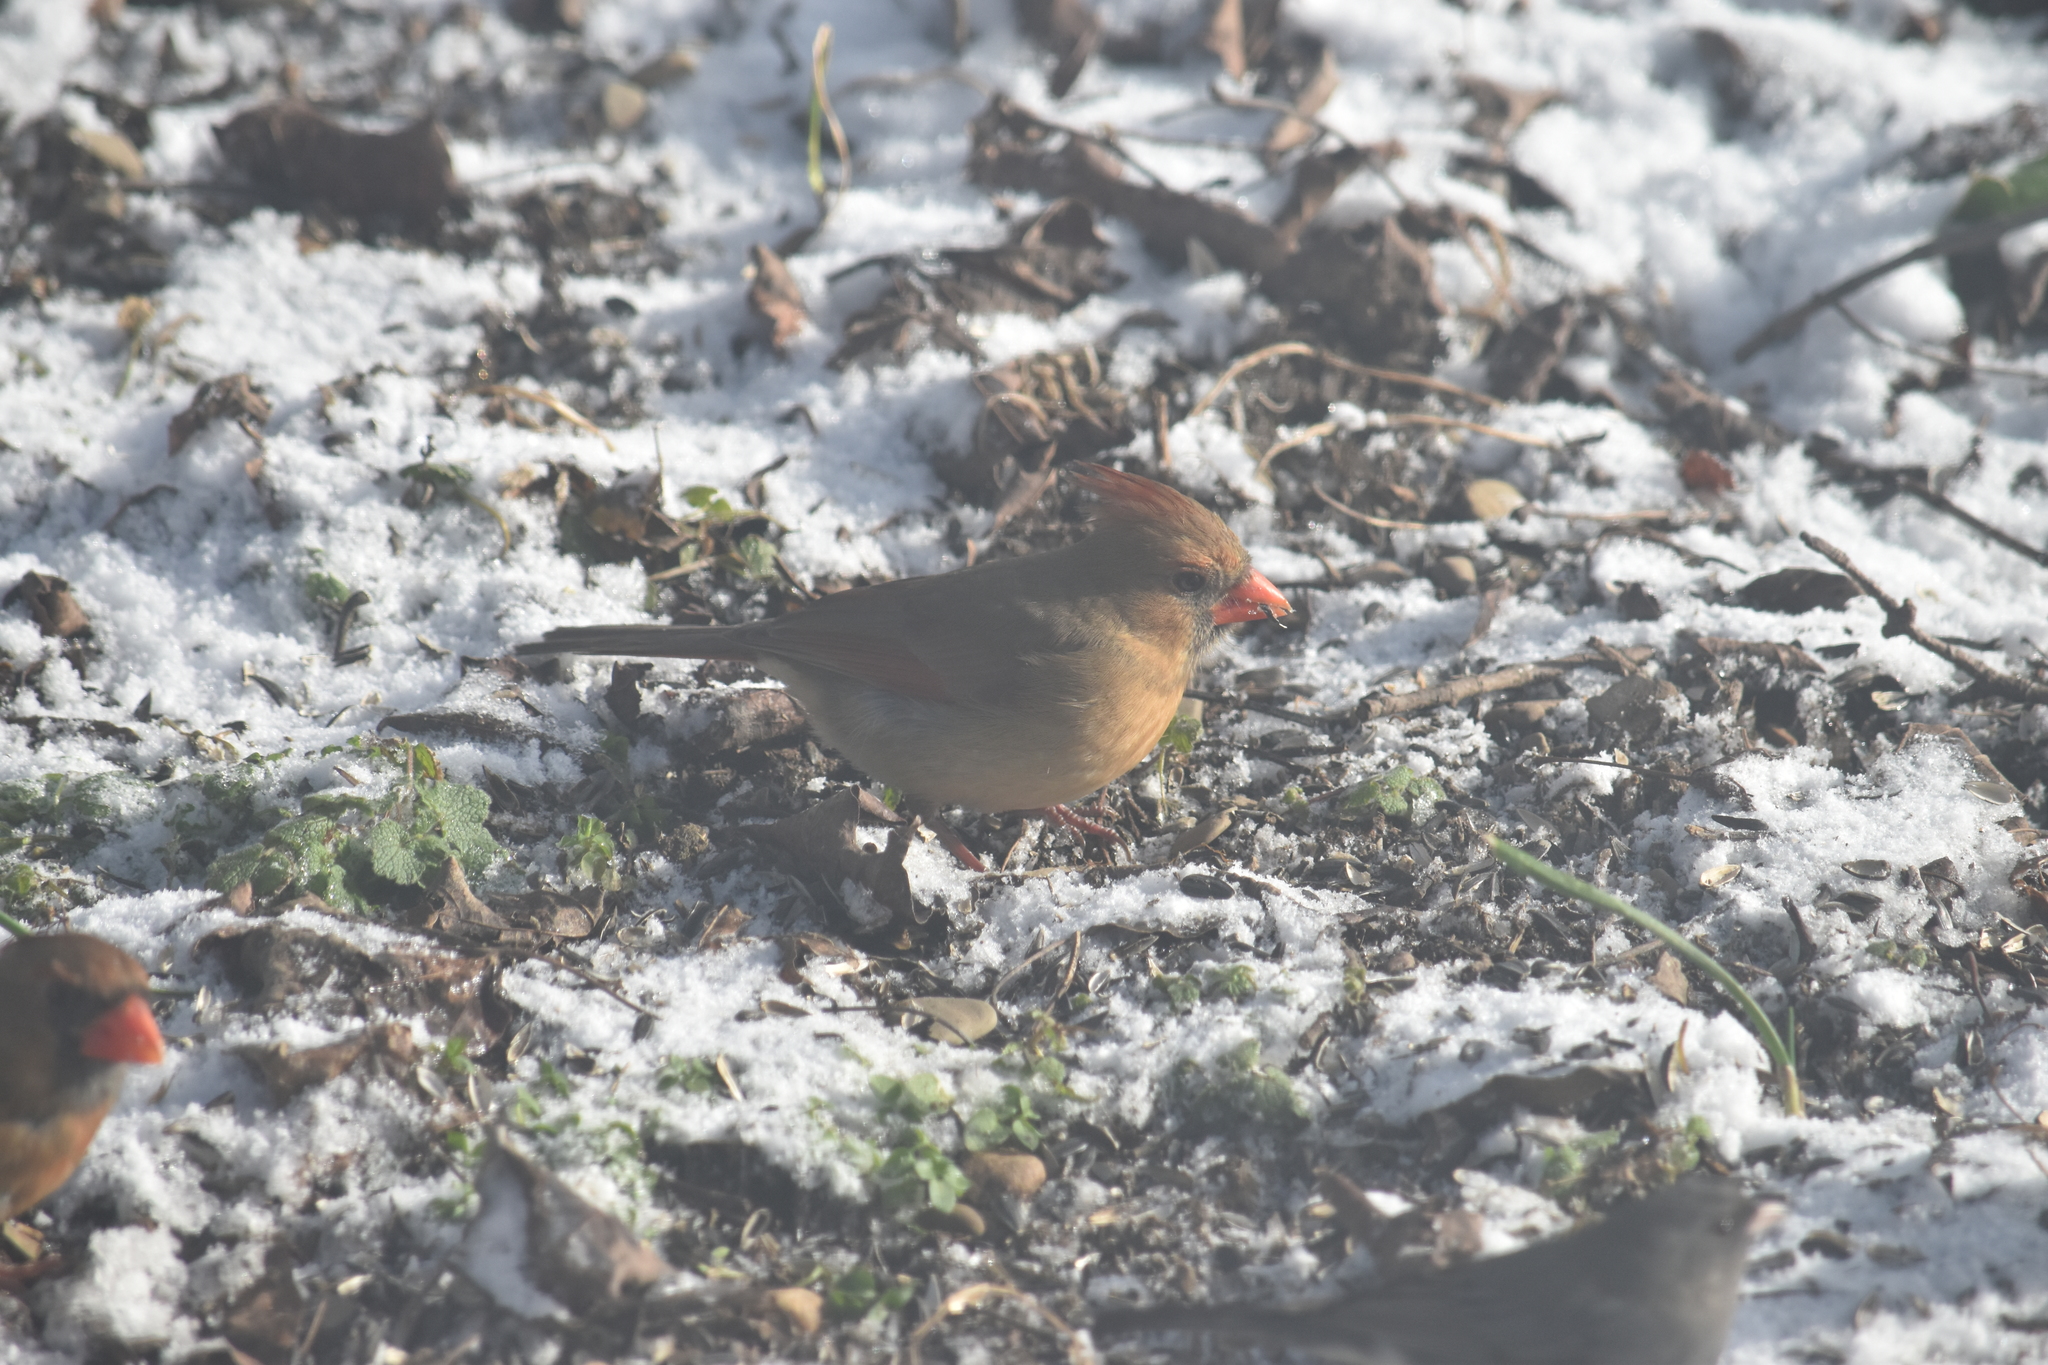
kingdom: Animalia
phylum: Chordata
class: Aves
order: Passeriformes
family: Cardinalidae
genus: Cardinalis
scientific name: Cardinalis cardinalis
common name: Northern cardinal
